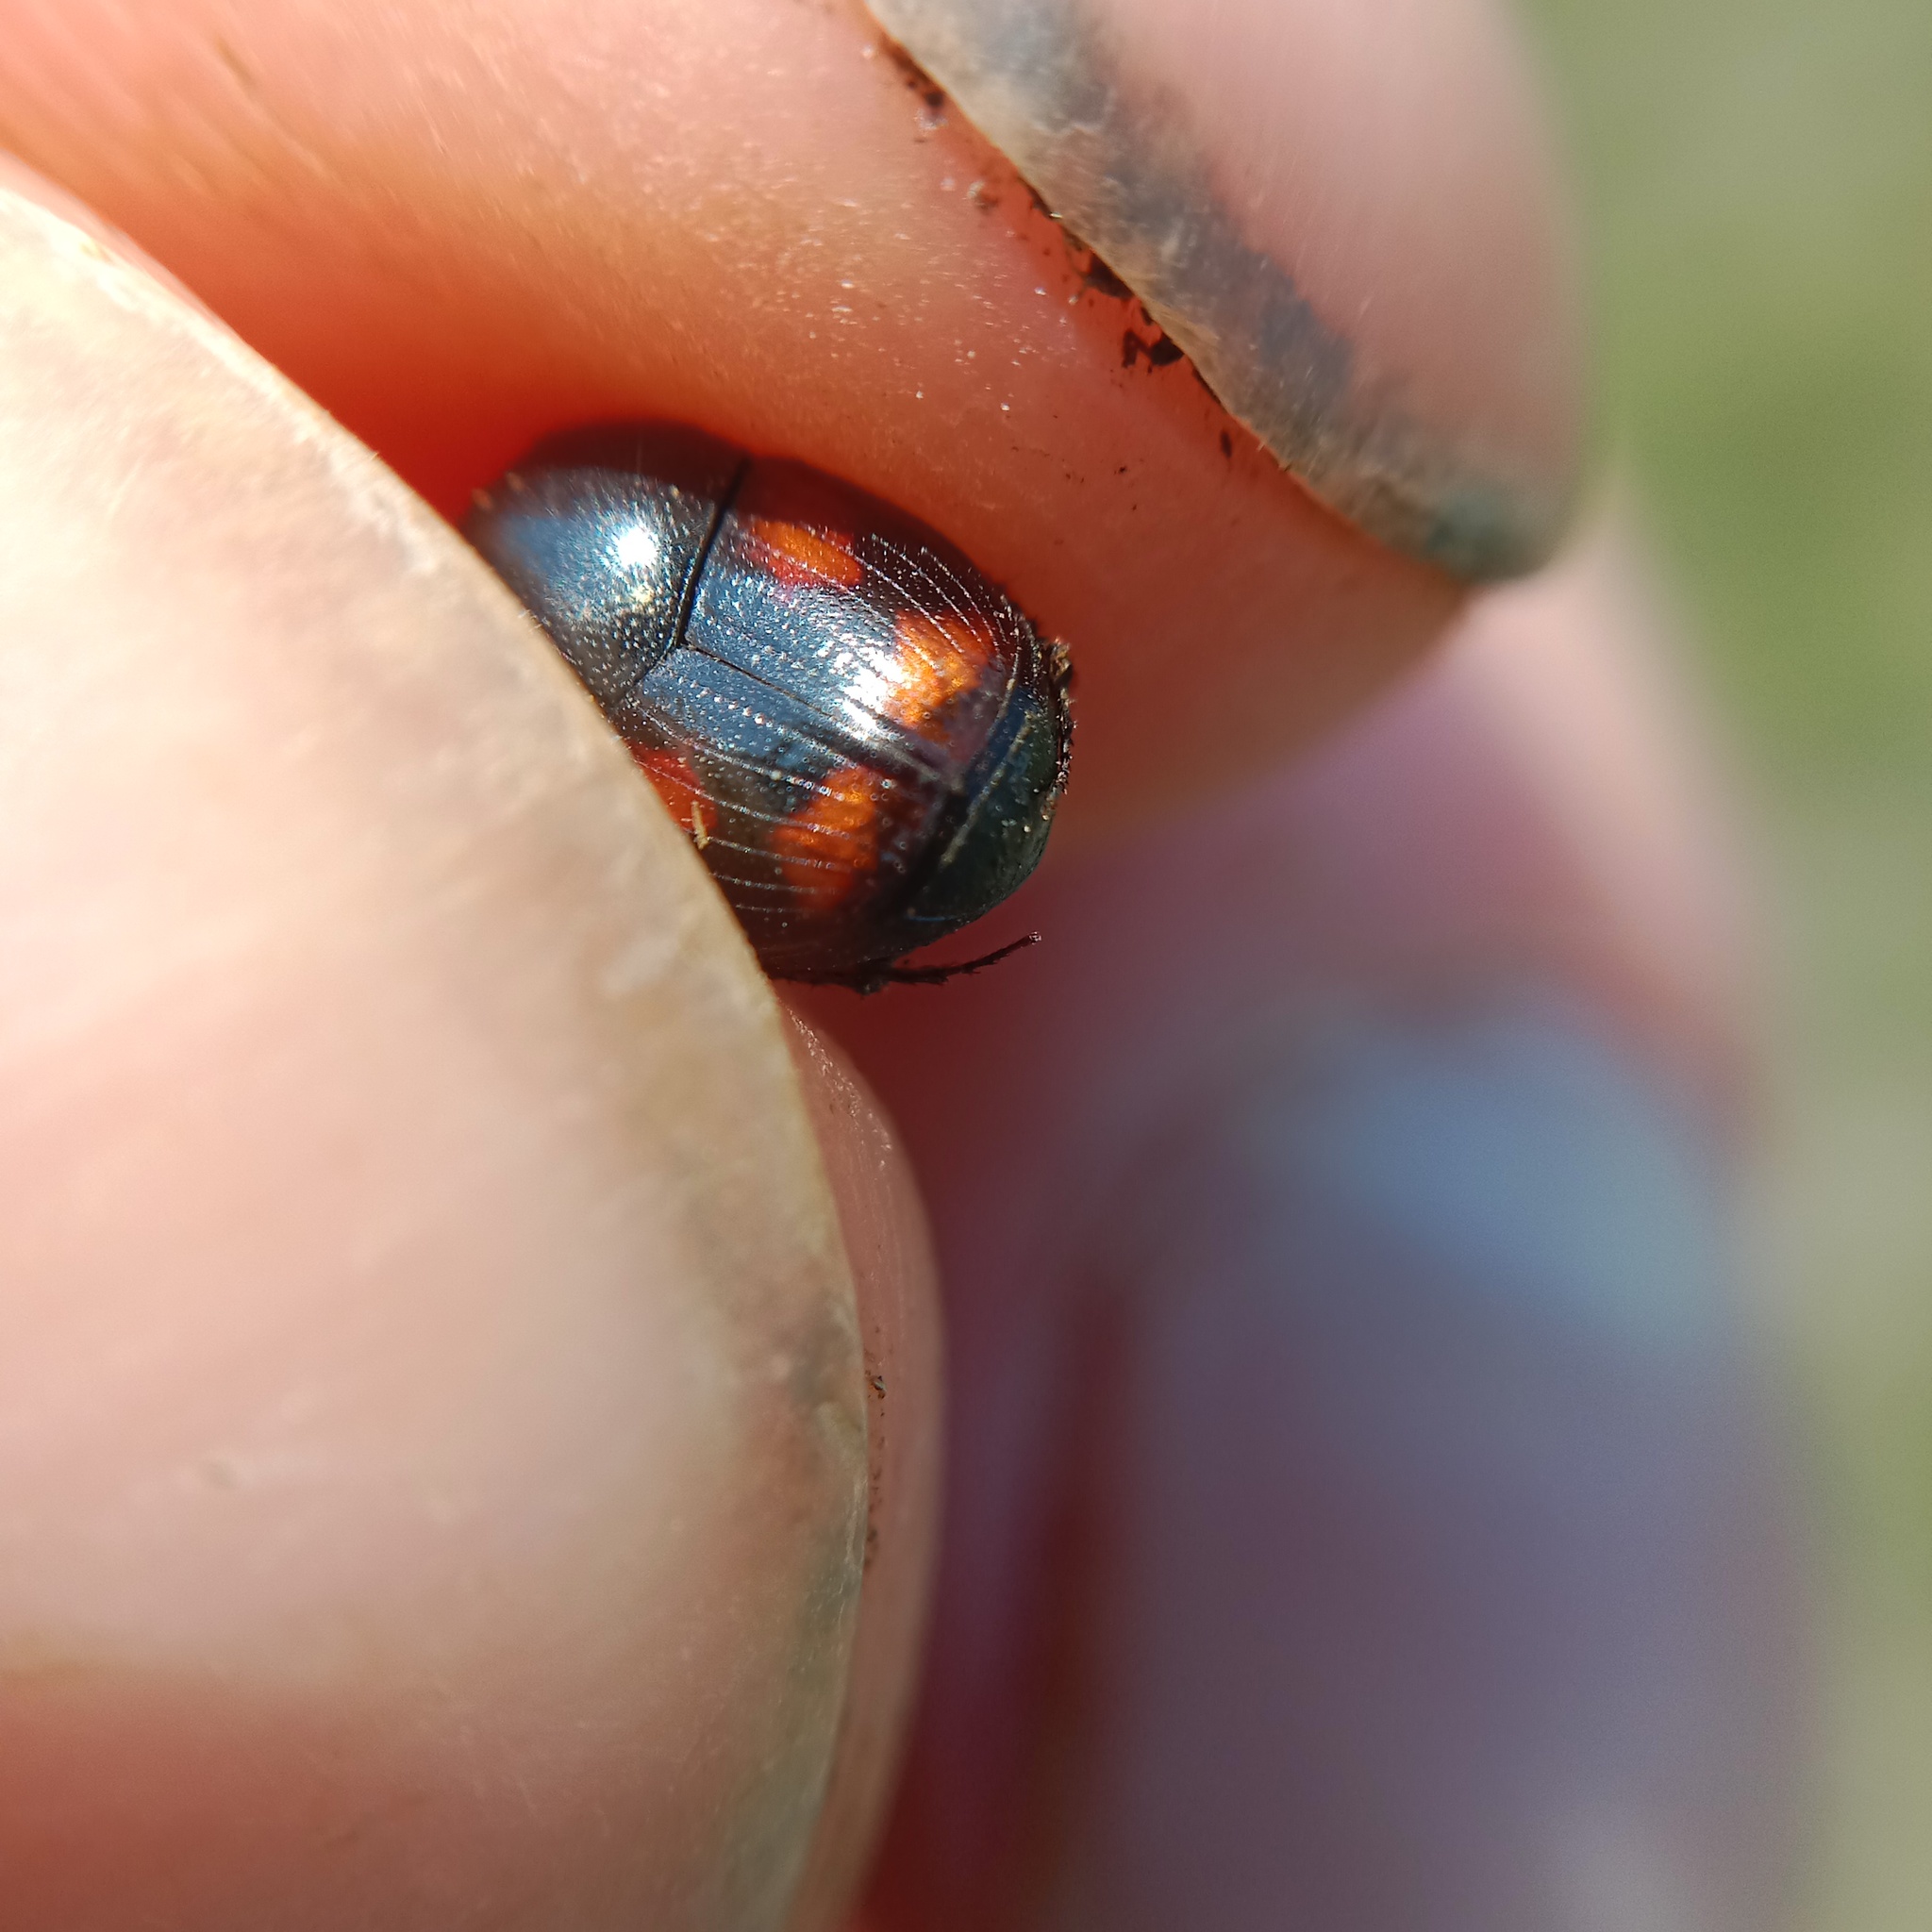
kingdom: Animalia
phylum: Arthropoda
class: Insecta
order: Coleoptera
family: Scarabaeidae
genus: Caccobius
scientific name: Caccobius schreberi
